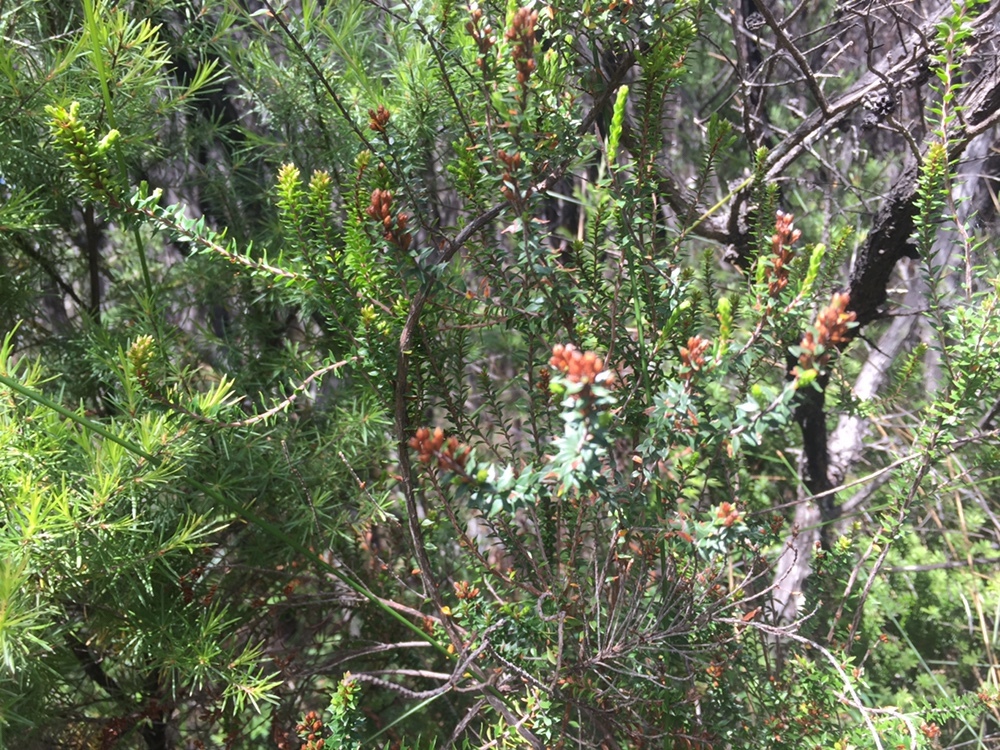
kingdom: Plantae
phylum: Tracheophyta
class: Magnoliopsida
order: Ericales
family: Ericaceae
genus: Epacris
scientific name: Epacris pauciflora
